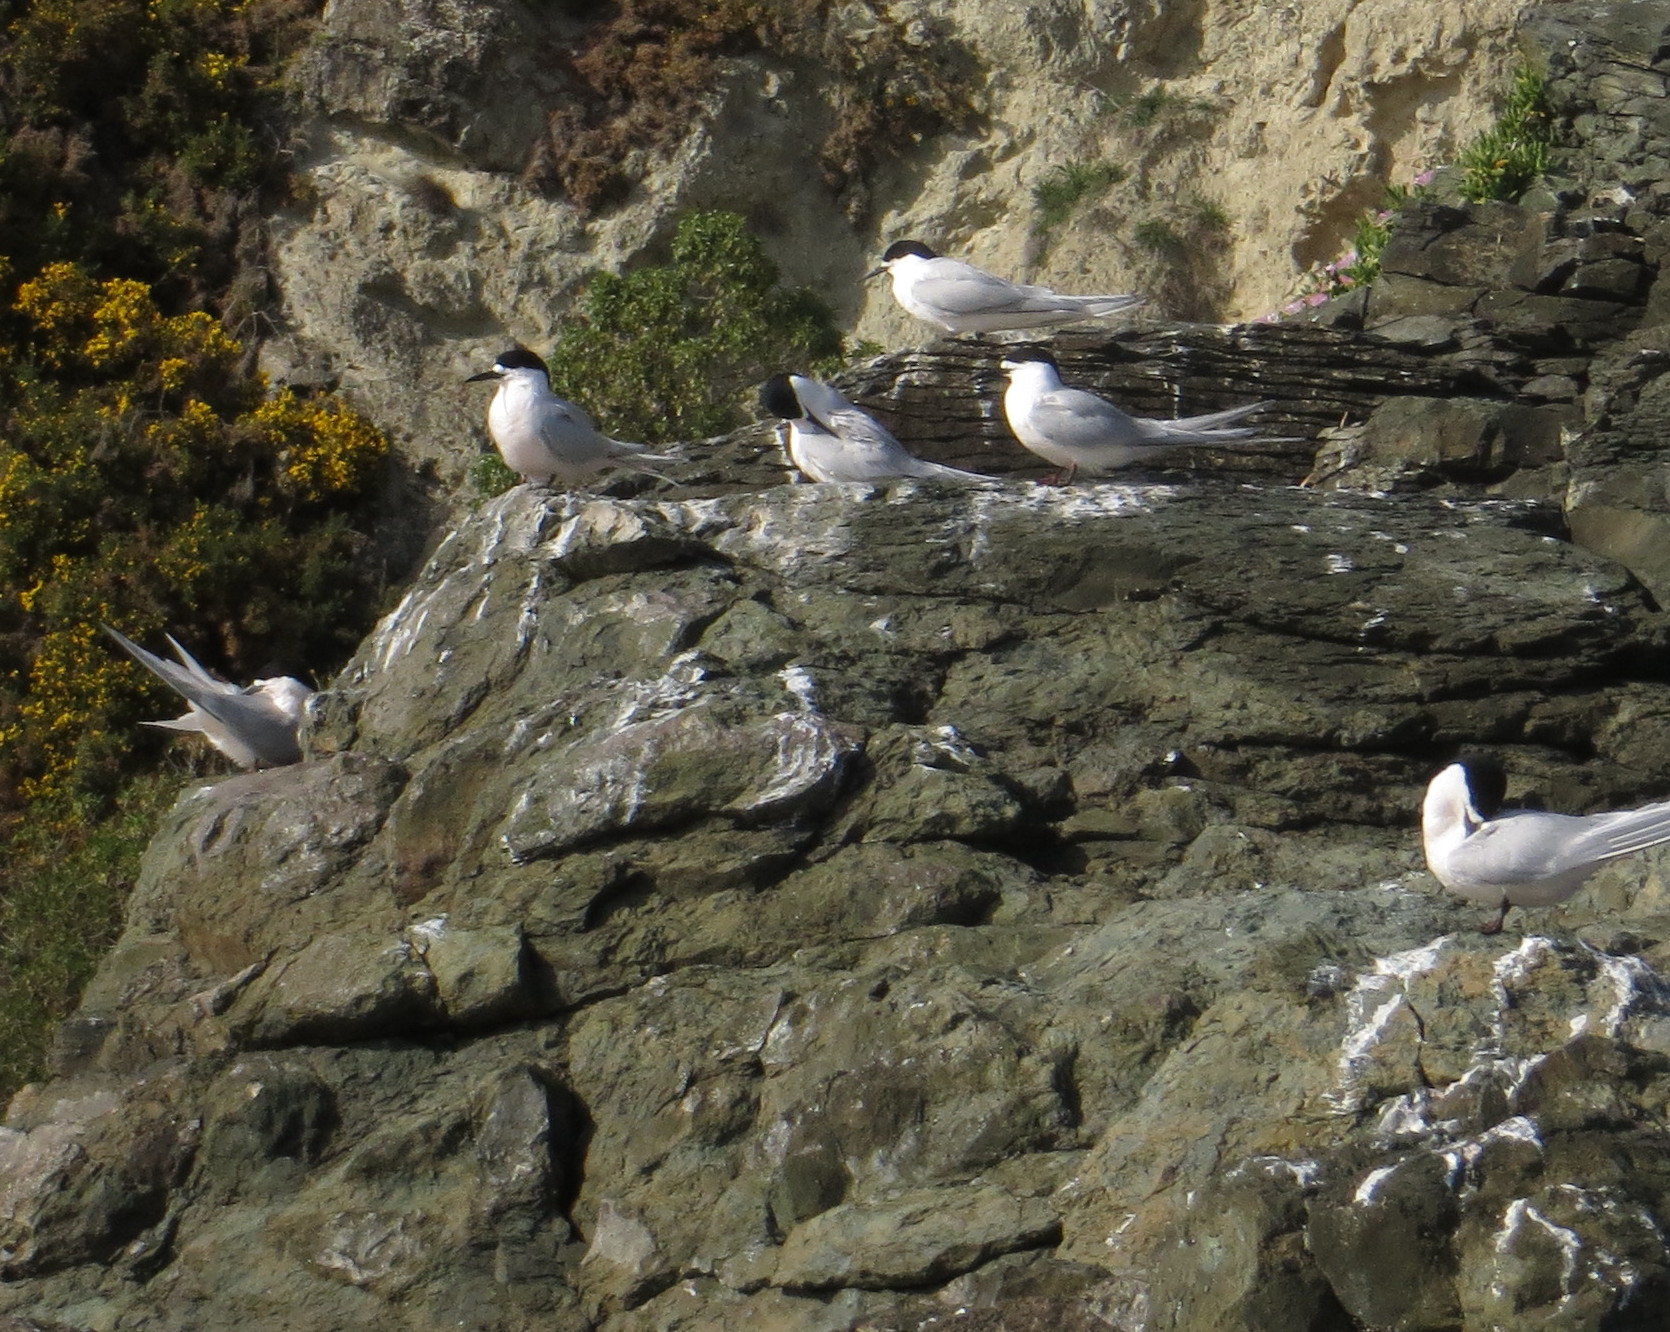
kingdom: Animalia
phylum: Chordata
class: Aves
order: Charadriiformes
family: Laridae
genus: Sterna
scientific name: Sterna striata
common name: White-fronted tern
